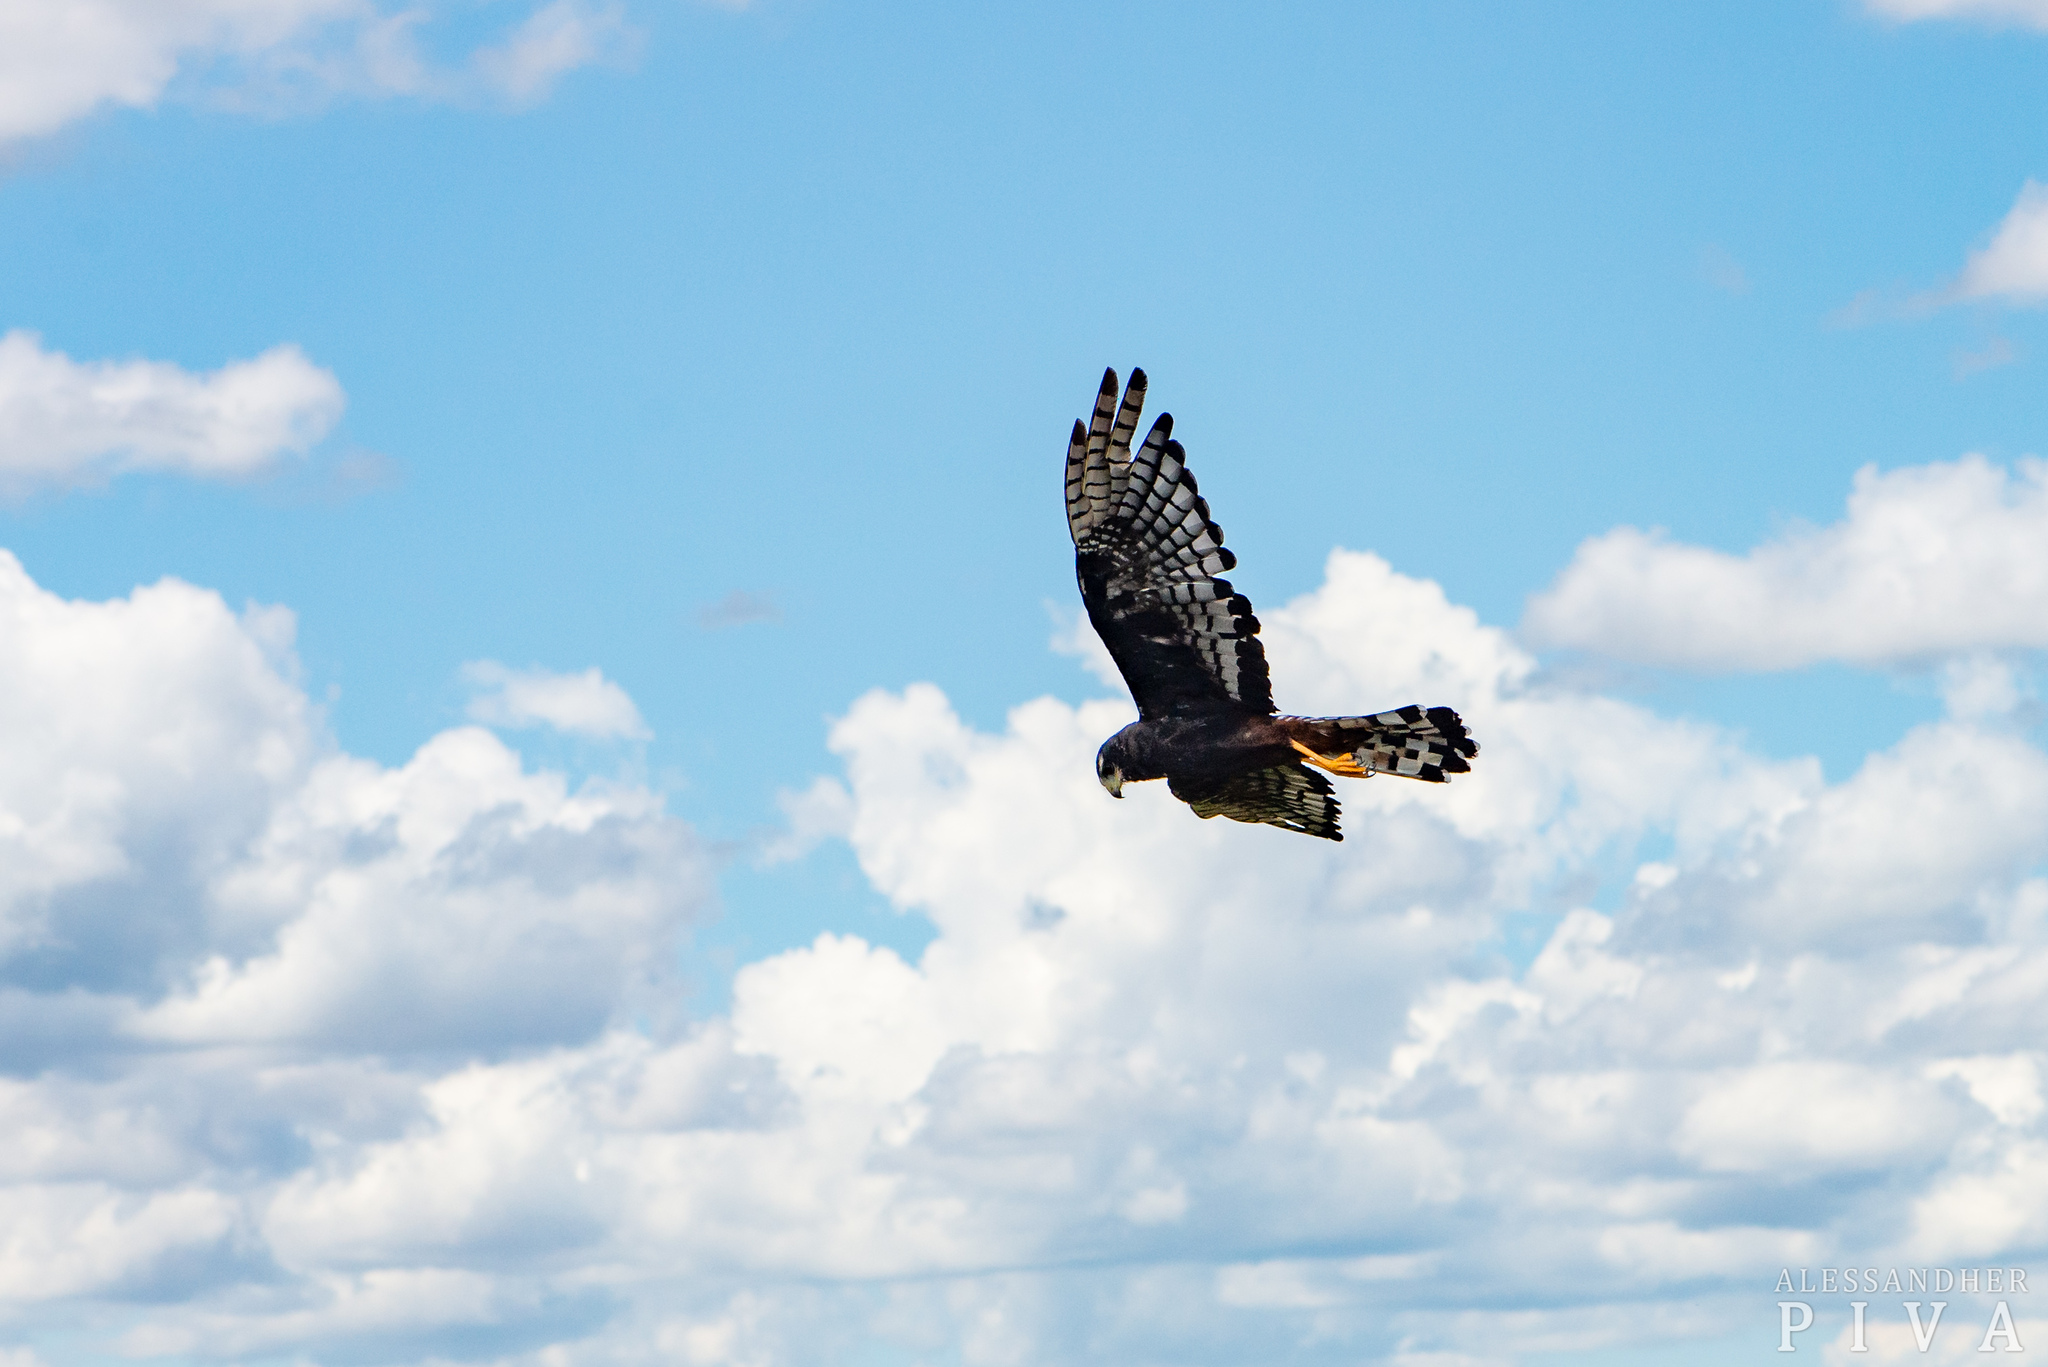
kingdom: Animalia
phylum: Chordata
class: Aves
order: Accipitriformes
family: Accipitridae
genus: Circus
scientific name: Circus buffoni
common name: Long-winged harrier
